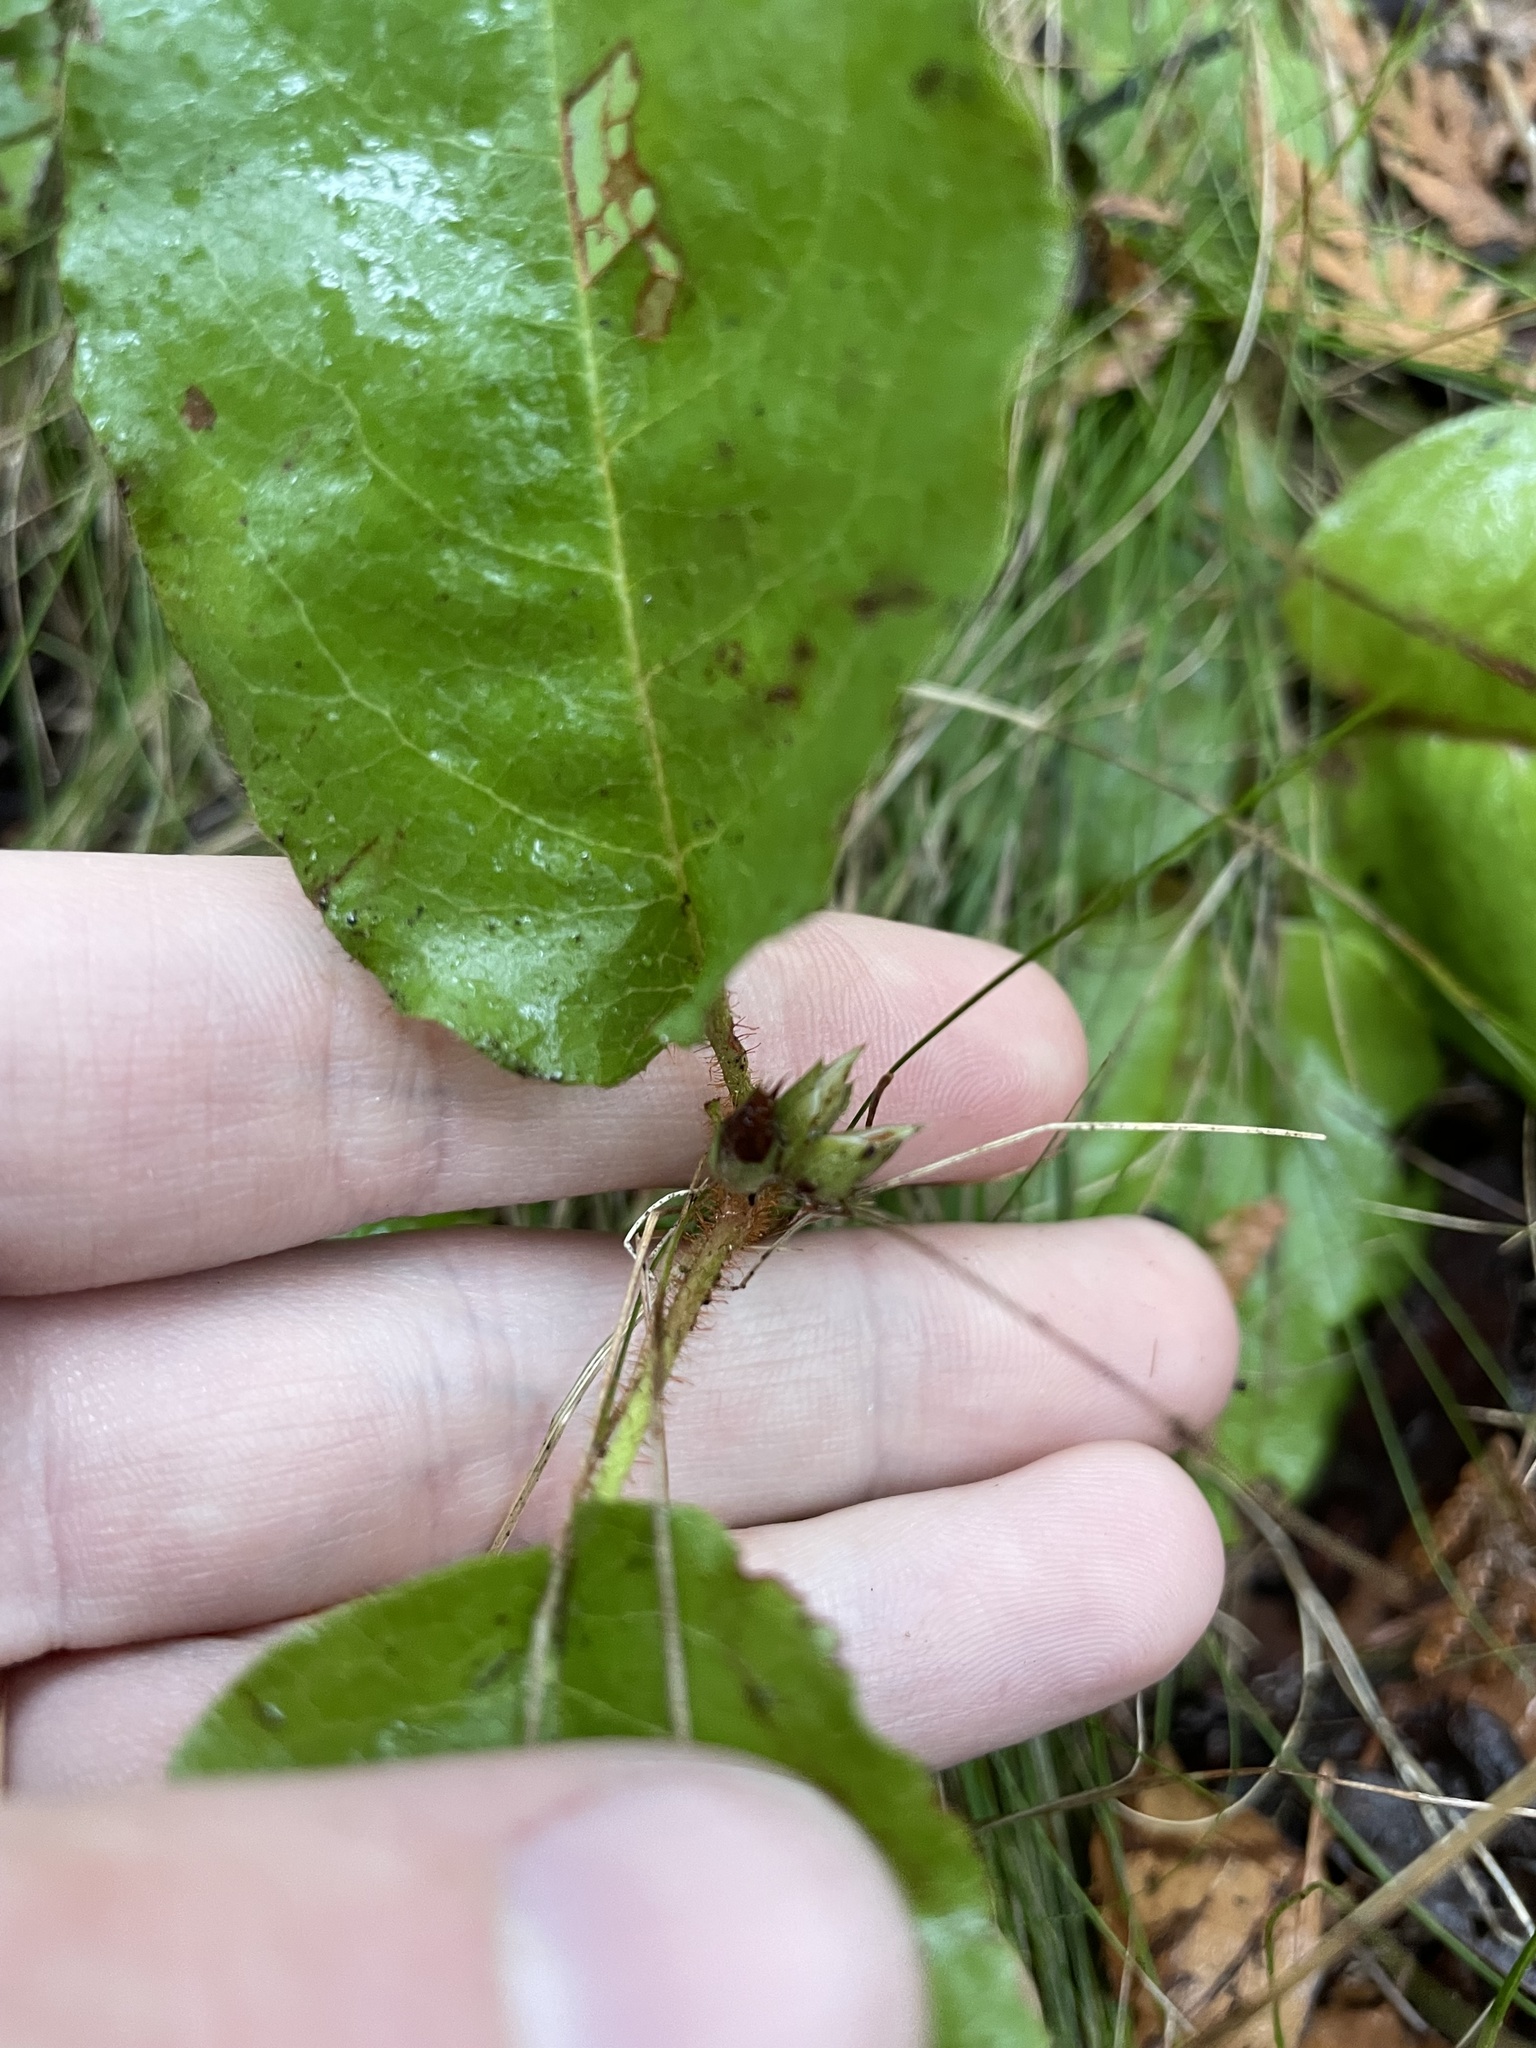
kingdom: Plantae
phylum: Tracheophyta
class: Magnoliopsida
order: Ericales
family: Ericaceae
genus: Epigaea
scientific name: Epigaea repens
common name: Gravelroot
